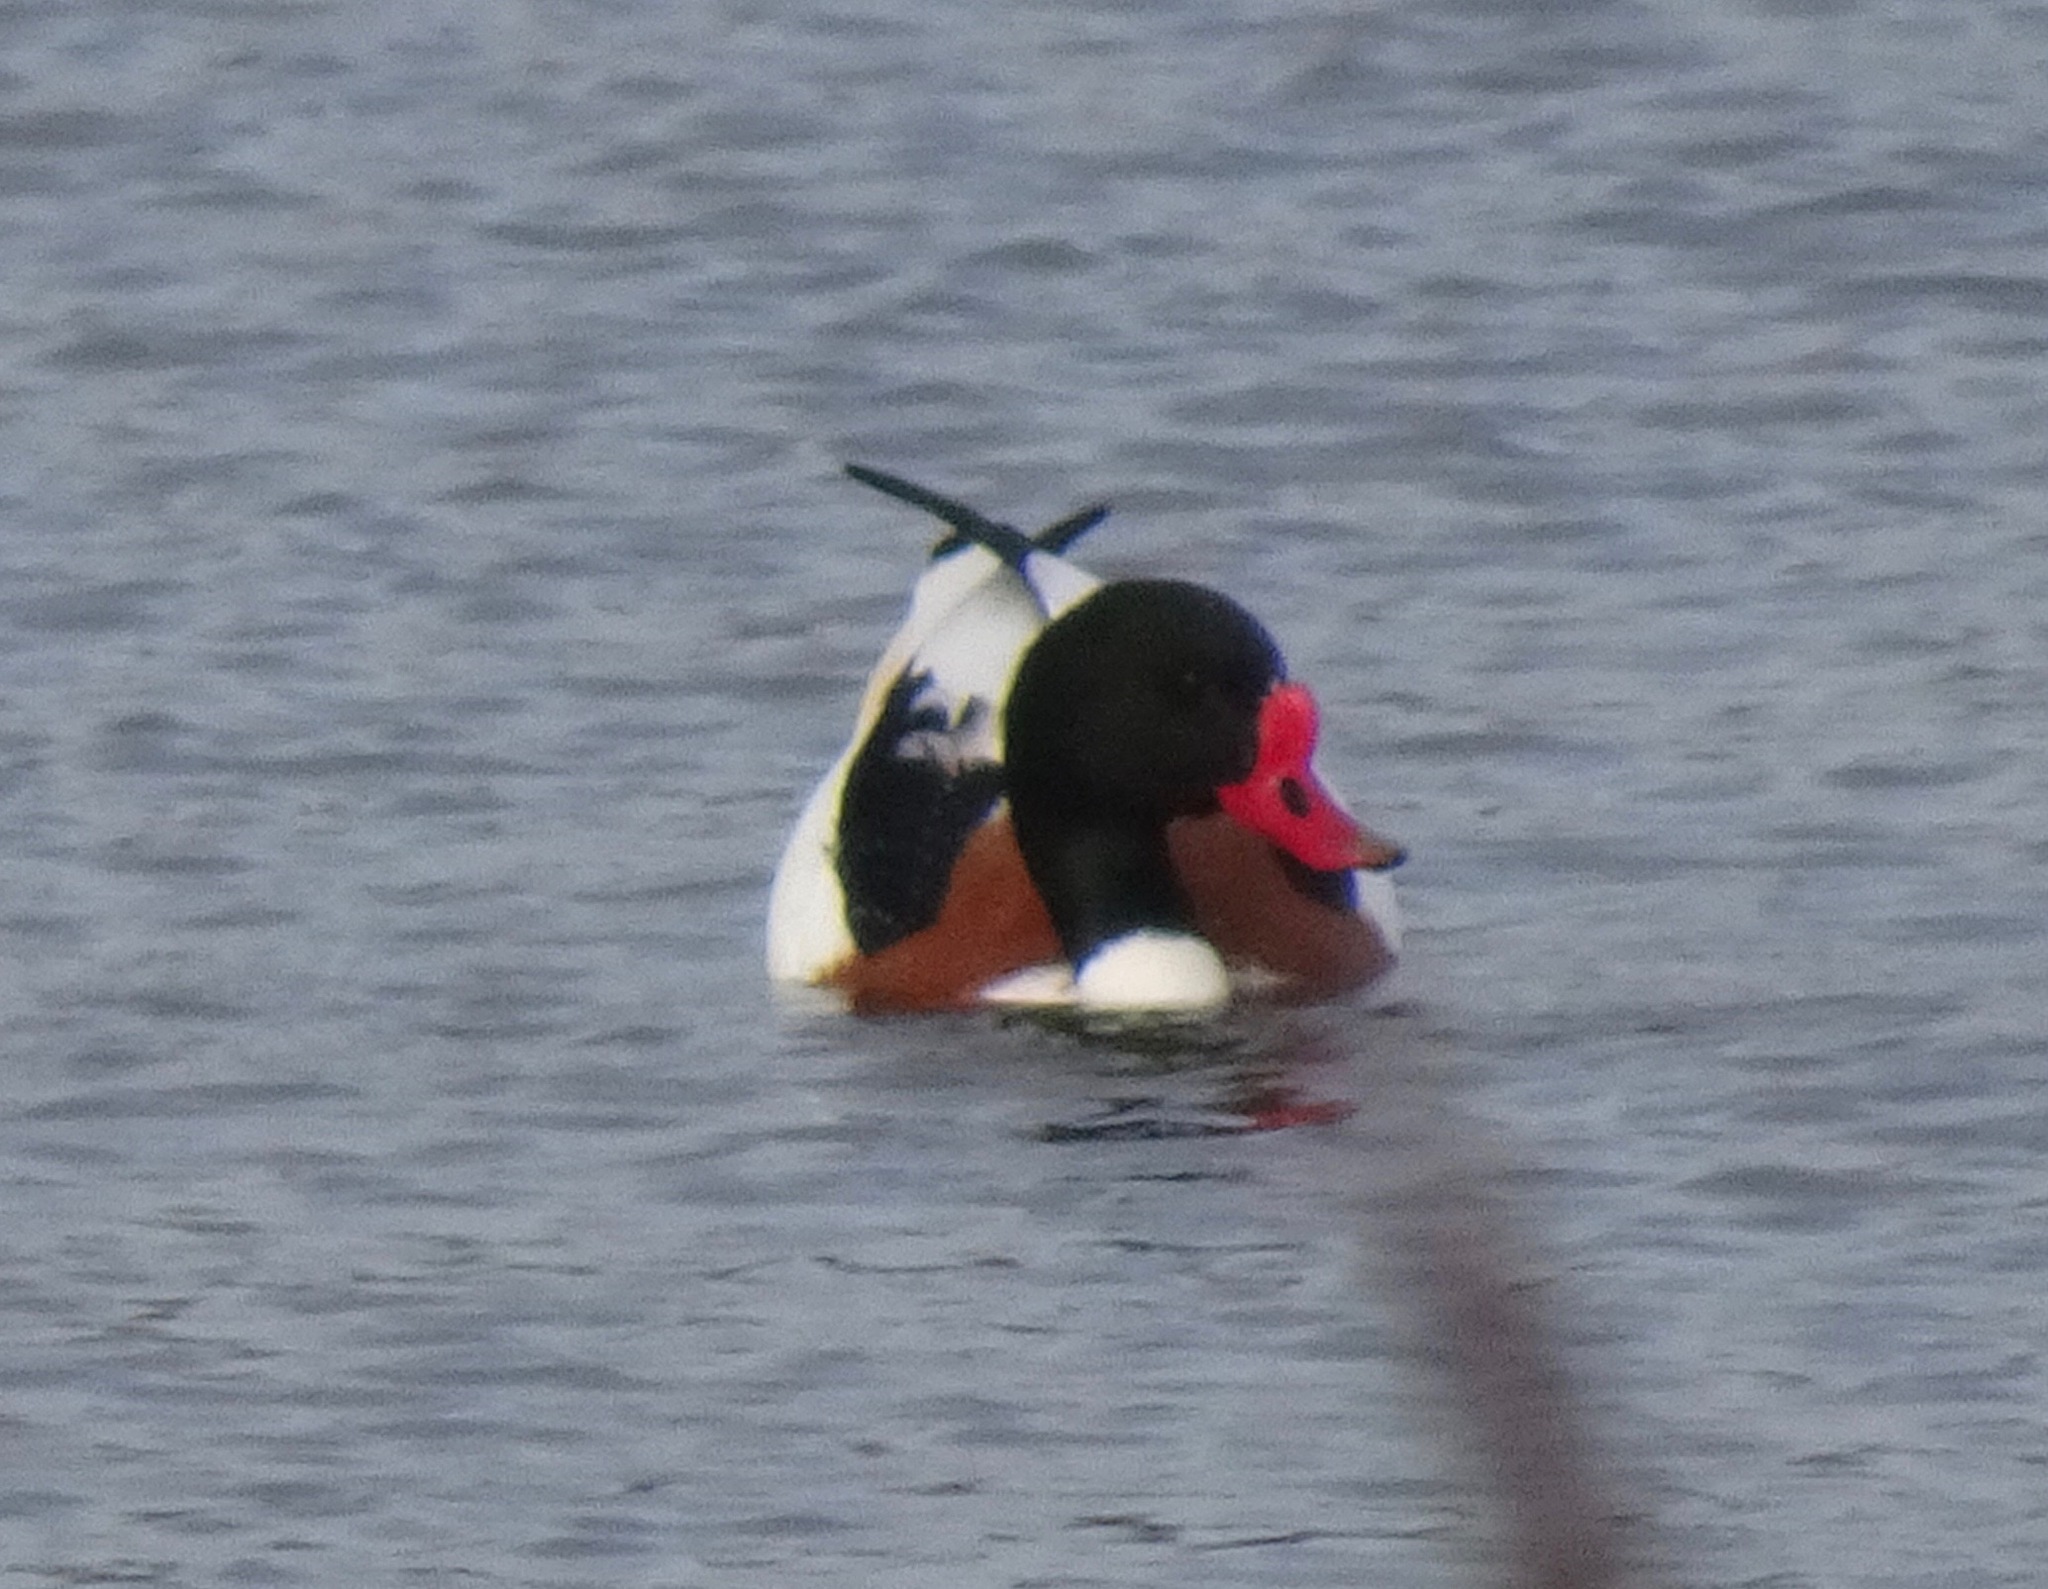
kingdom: Animalia
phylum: Chordata
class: Aves
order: Anseriformes
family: Anatidae
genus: Tadorna
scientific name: Tadorna tadorna
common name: Common shelduck
